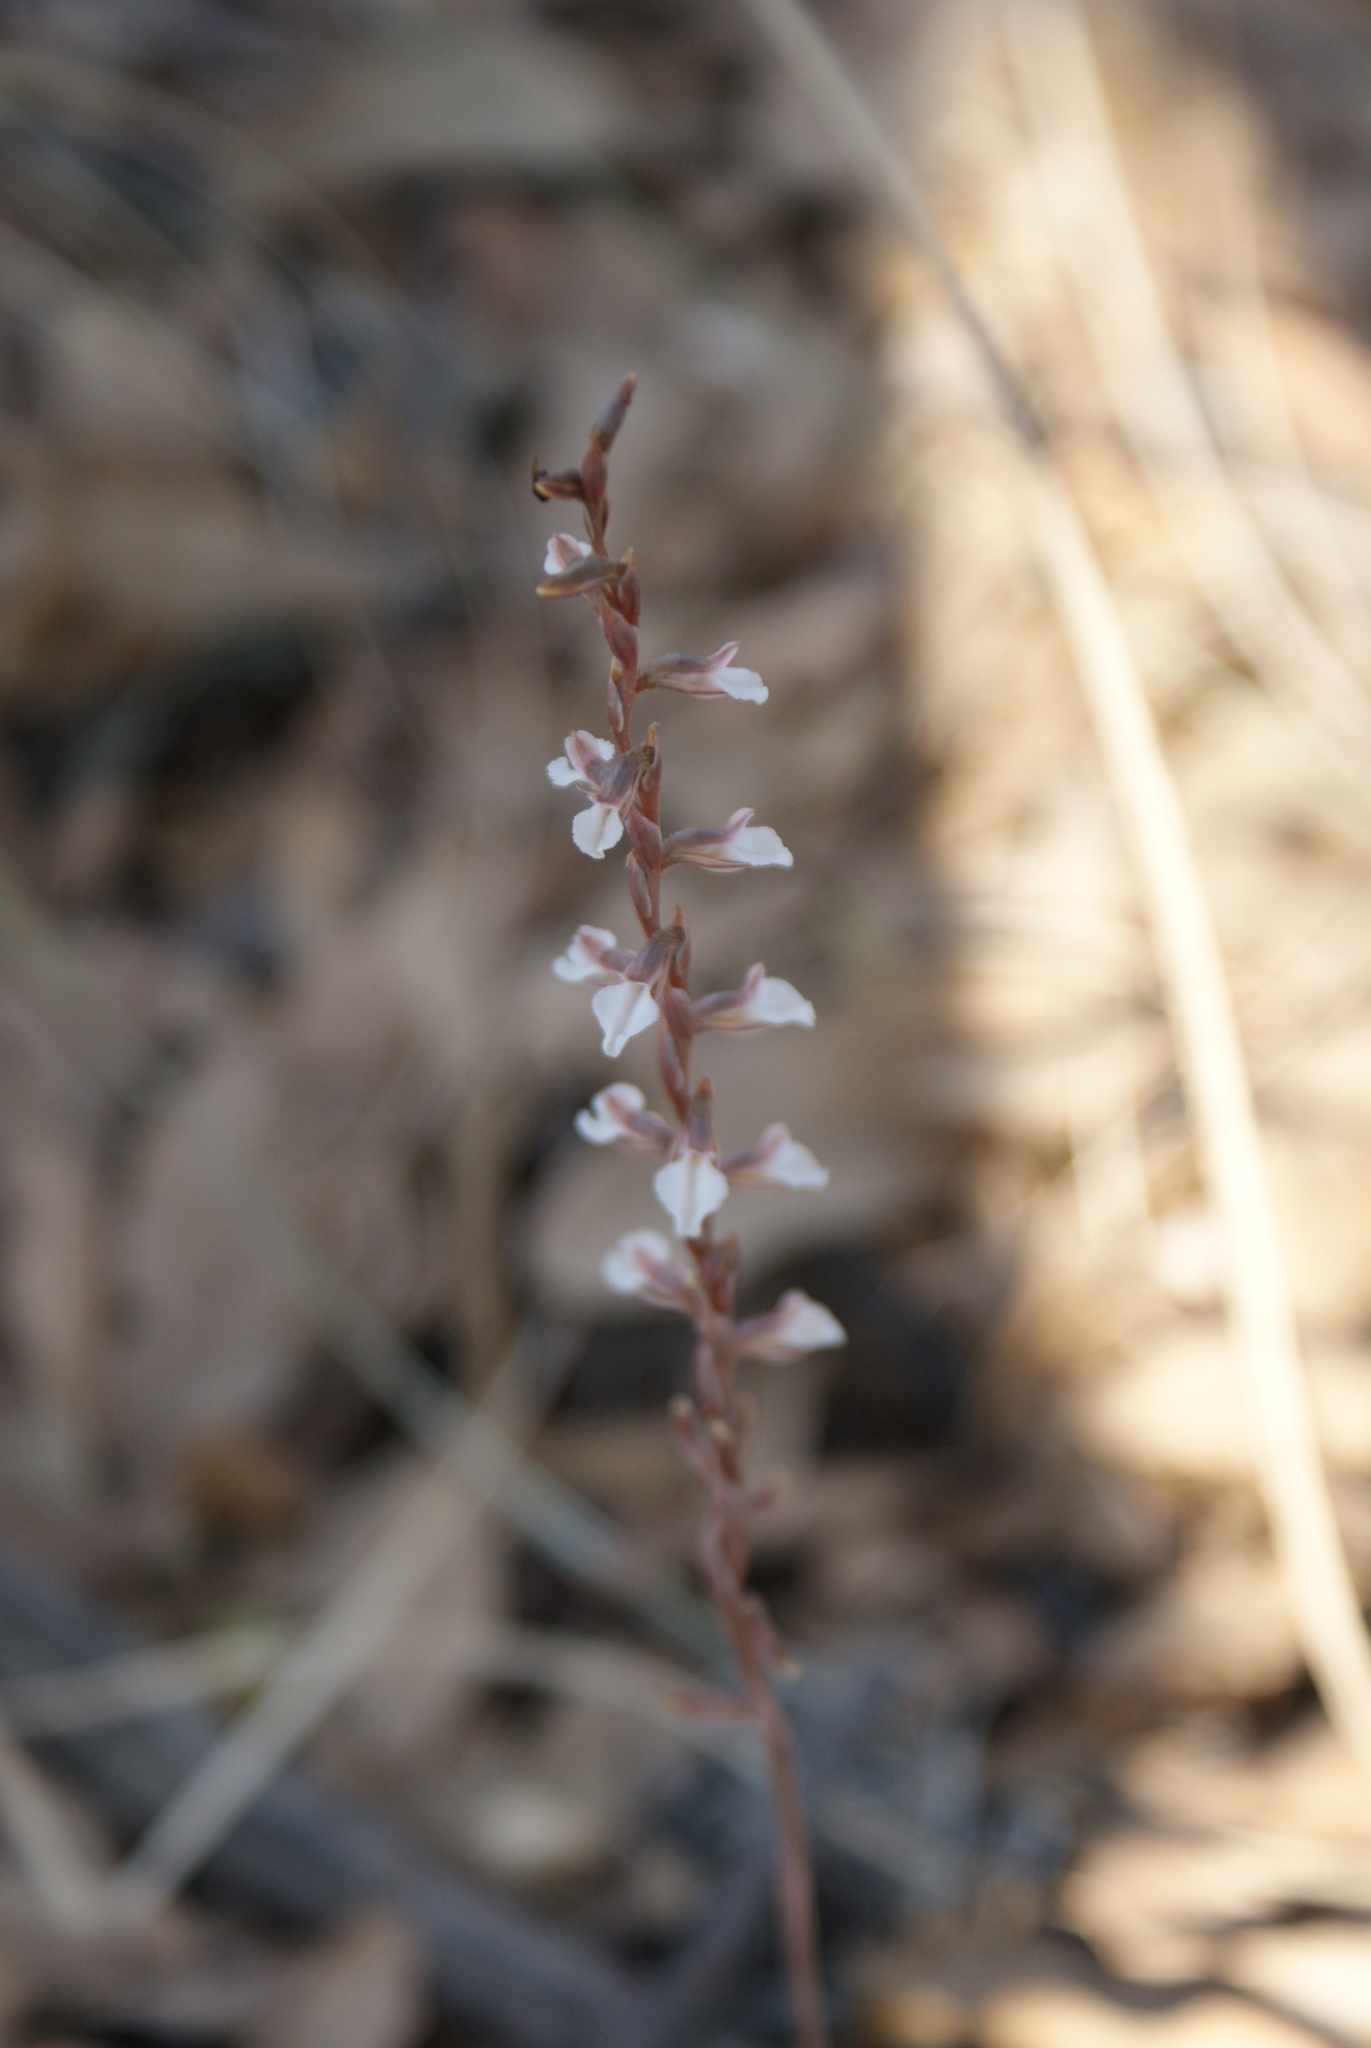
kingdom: Plantae
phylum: Tracheophyta
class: Liliopsida
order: Asparagales
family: Orchidaceae
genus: Greenwoodiella
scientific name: Greenwoodiella micrantha
